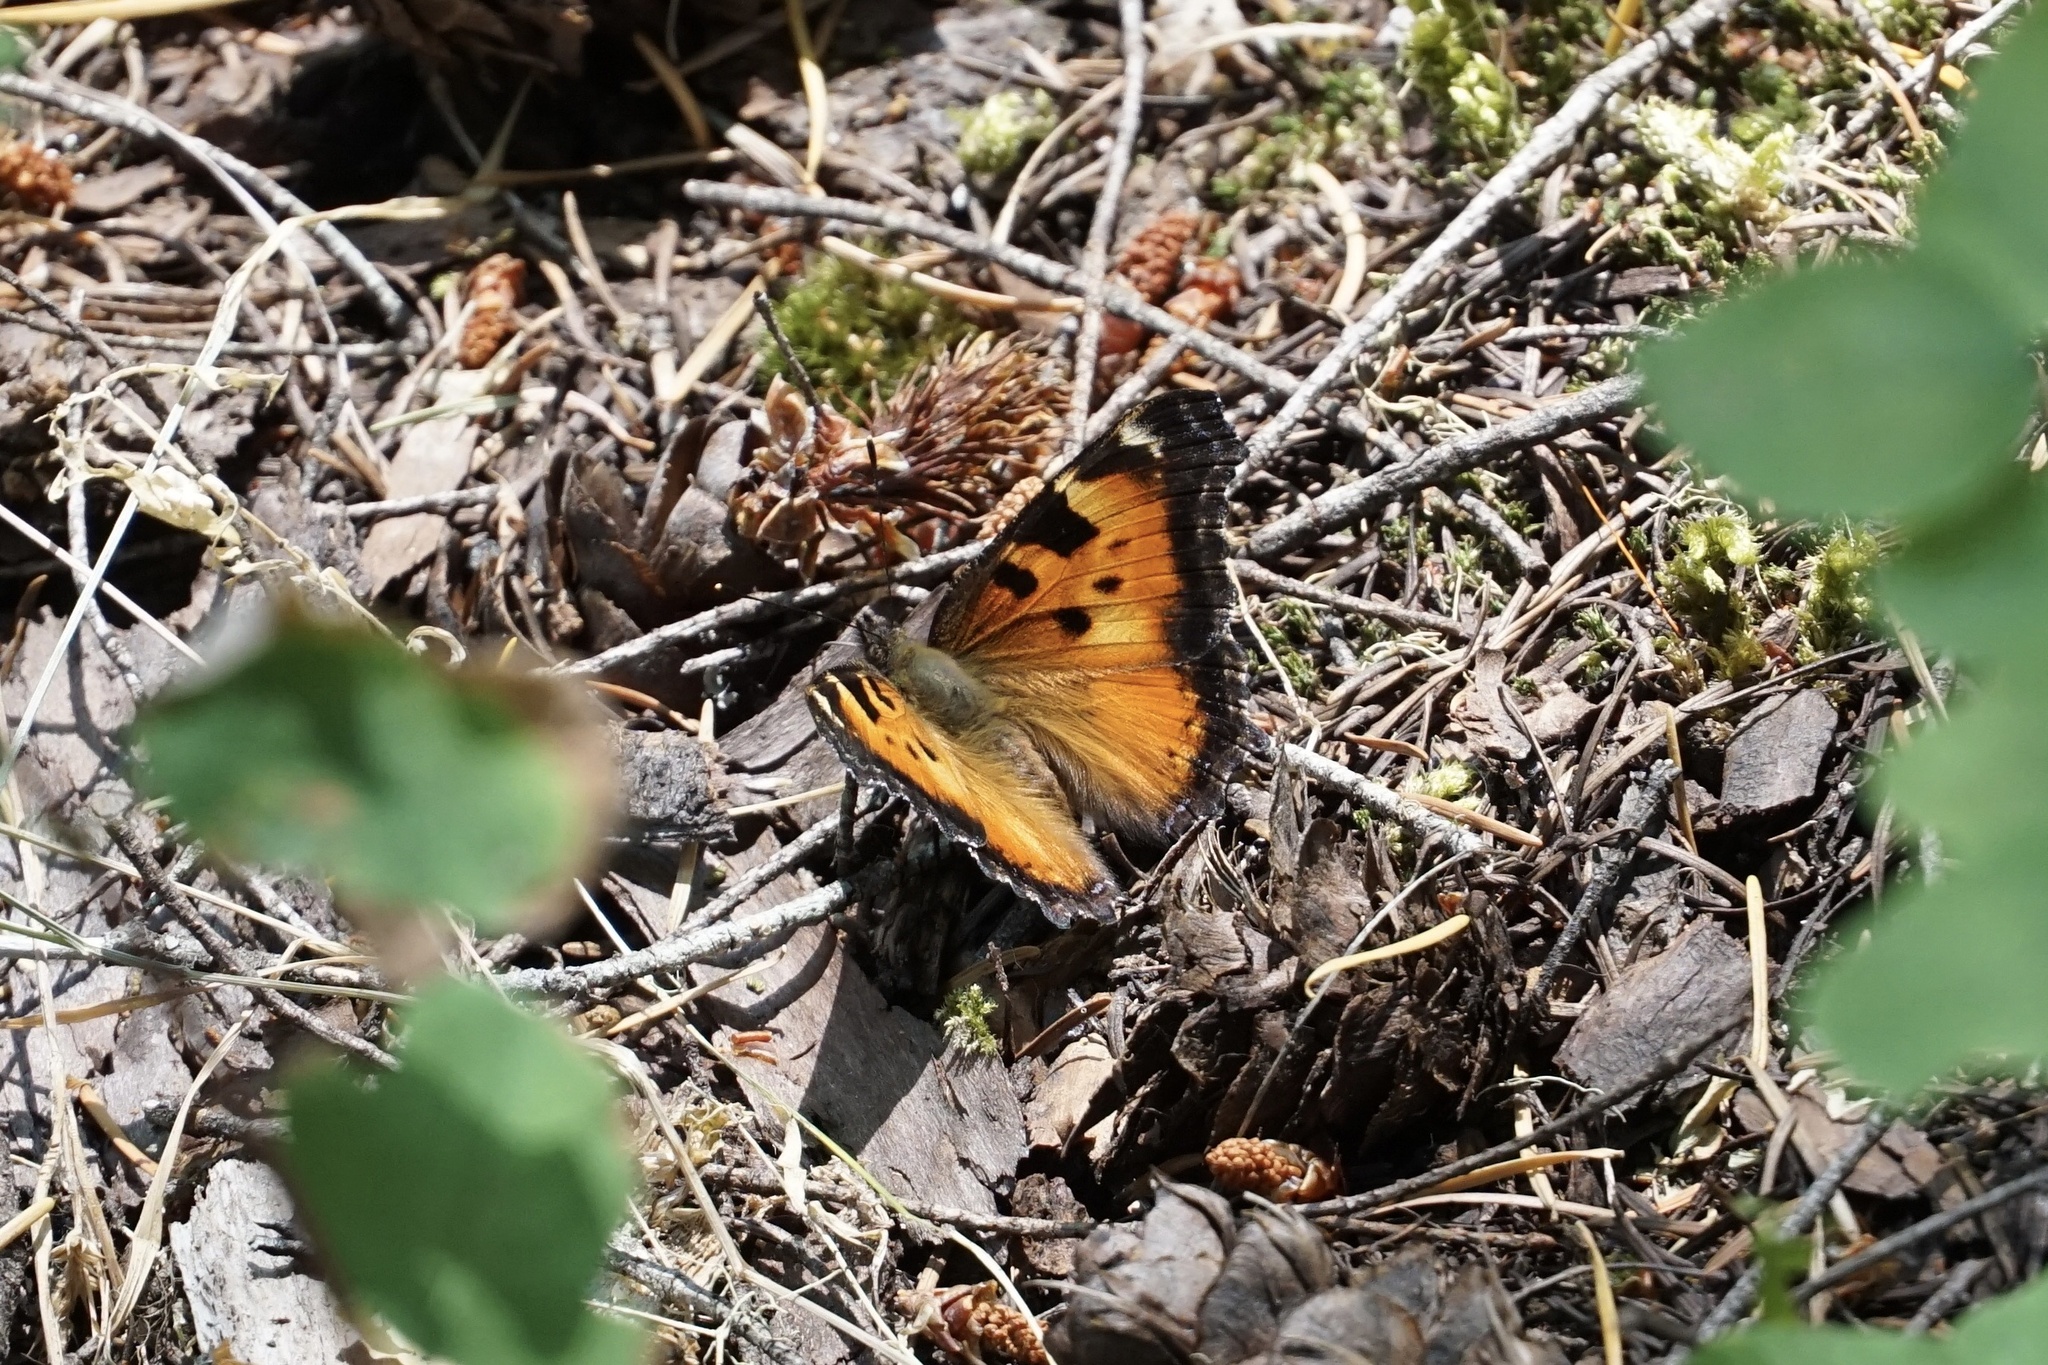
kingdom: Animalia
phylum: Arthropoda
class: Insecta
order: Lepidoptera
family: Nymphalidae
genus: Nymphalis
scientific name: Nymphalis californica
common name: California tortoiseshell
